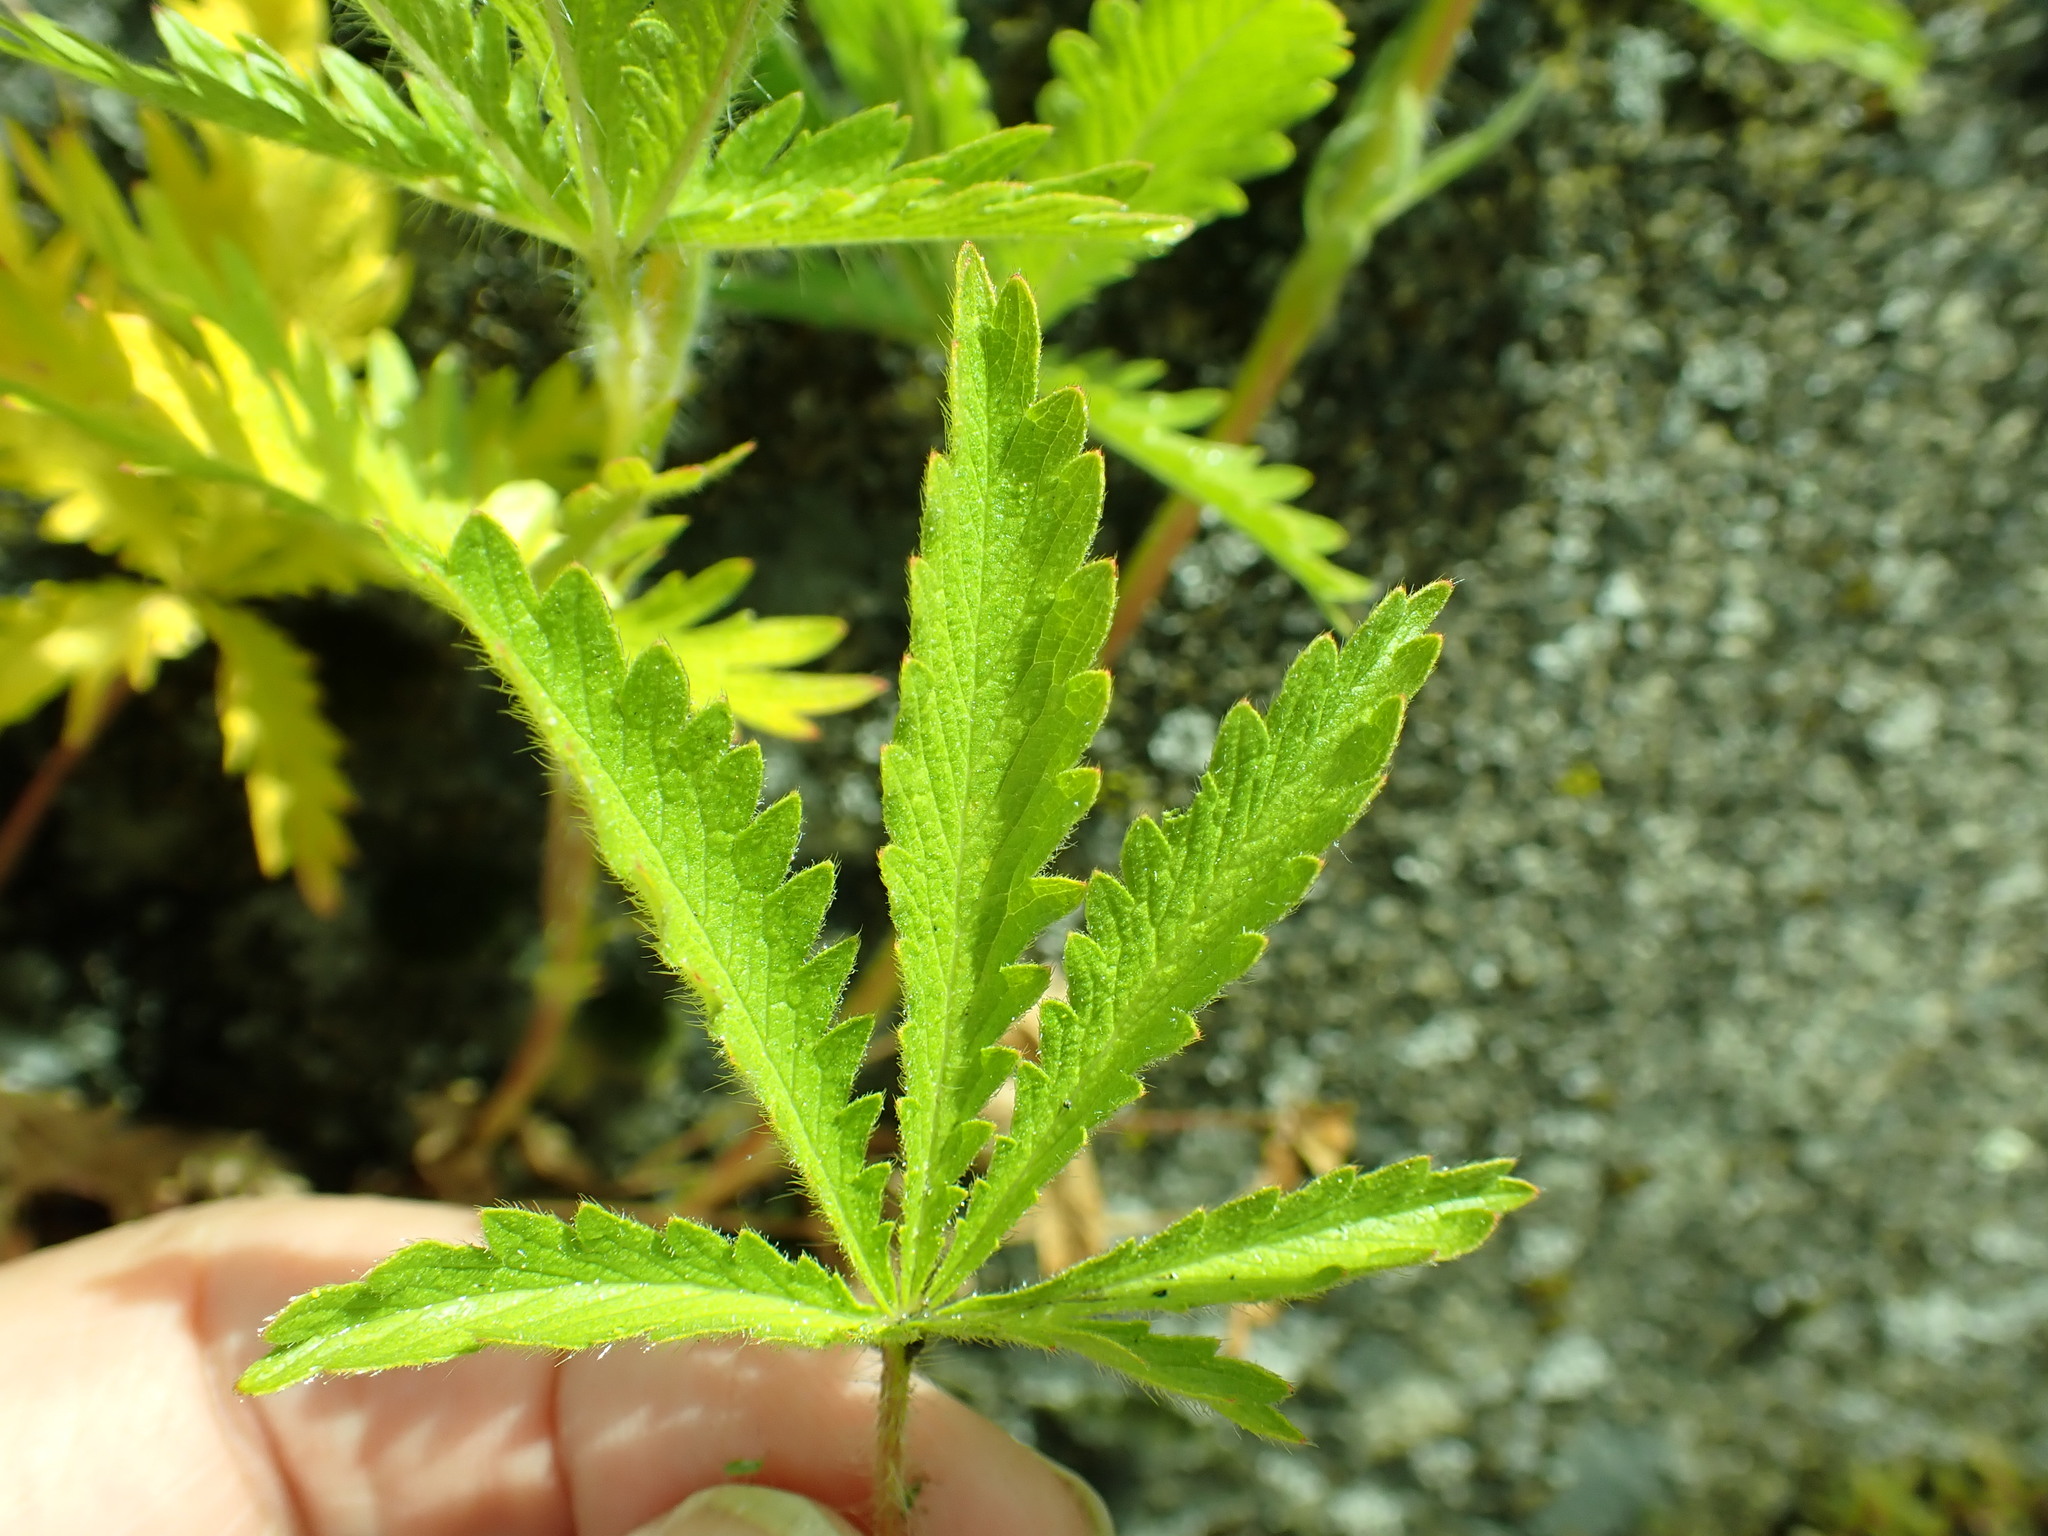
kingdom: Plantae
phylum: Tracheophyta
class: Magnoliopsida
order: Rosales
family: Rosaceae
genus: Potentilla
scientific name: Potentilla recta
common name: Sulphur cinquefoil
